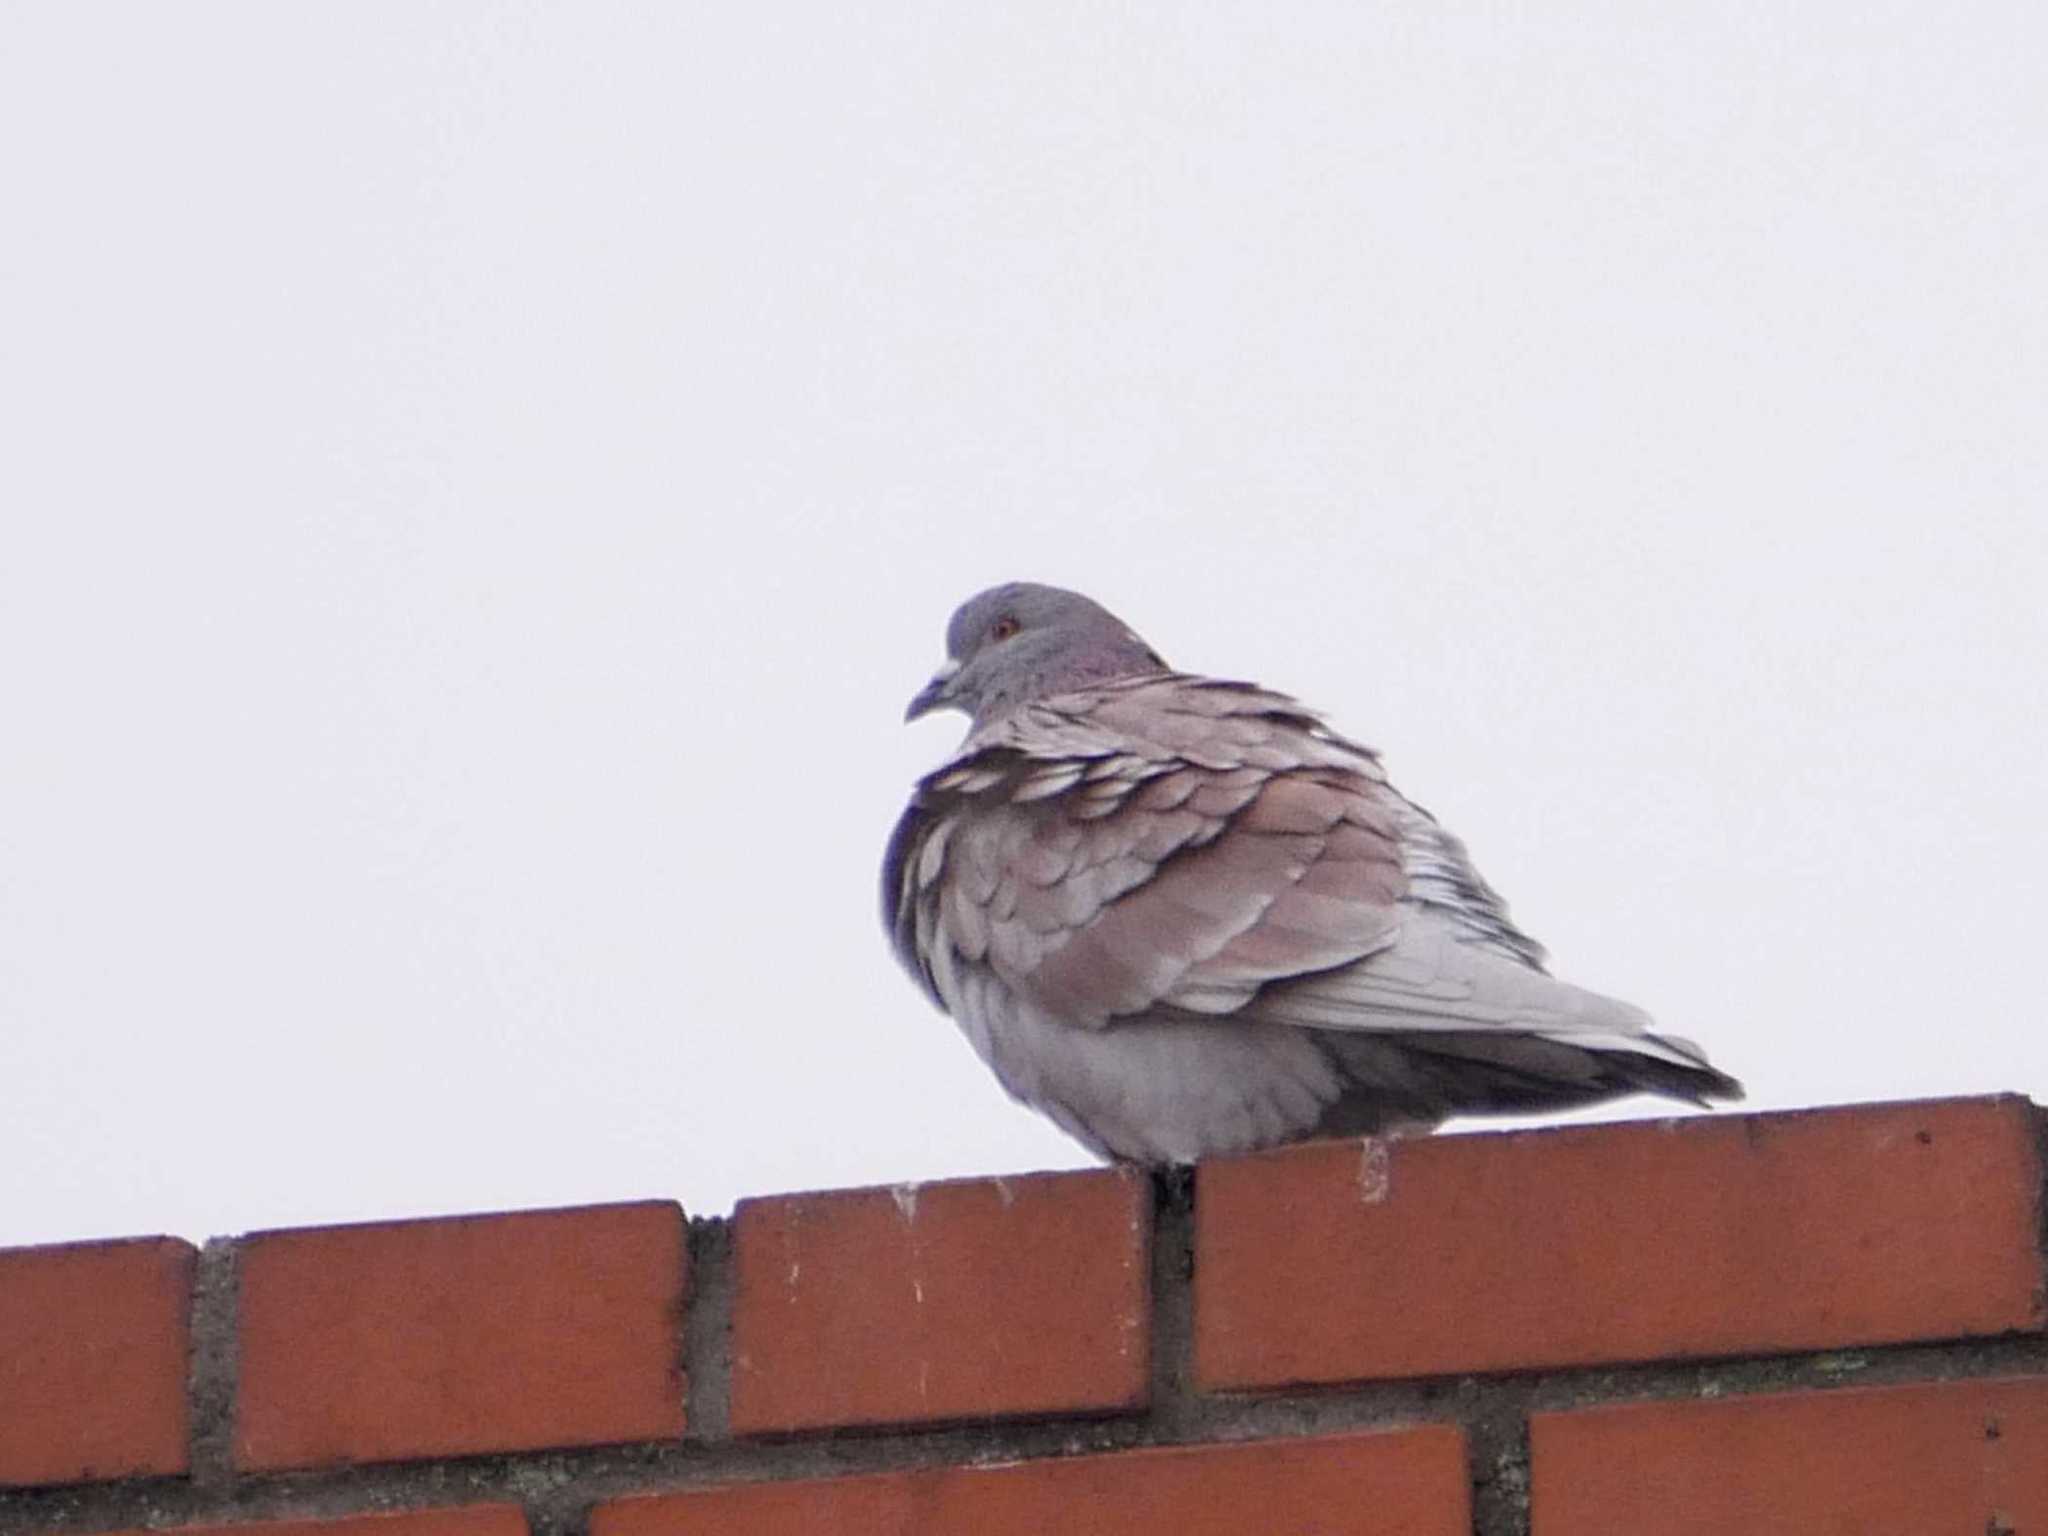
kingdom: Animalia
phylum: Chordata
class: Aves
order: Columbiformes
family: Columbidae
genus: Columba
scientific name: Columba livia
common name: Rock pigeon
